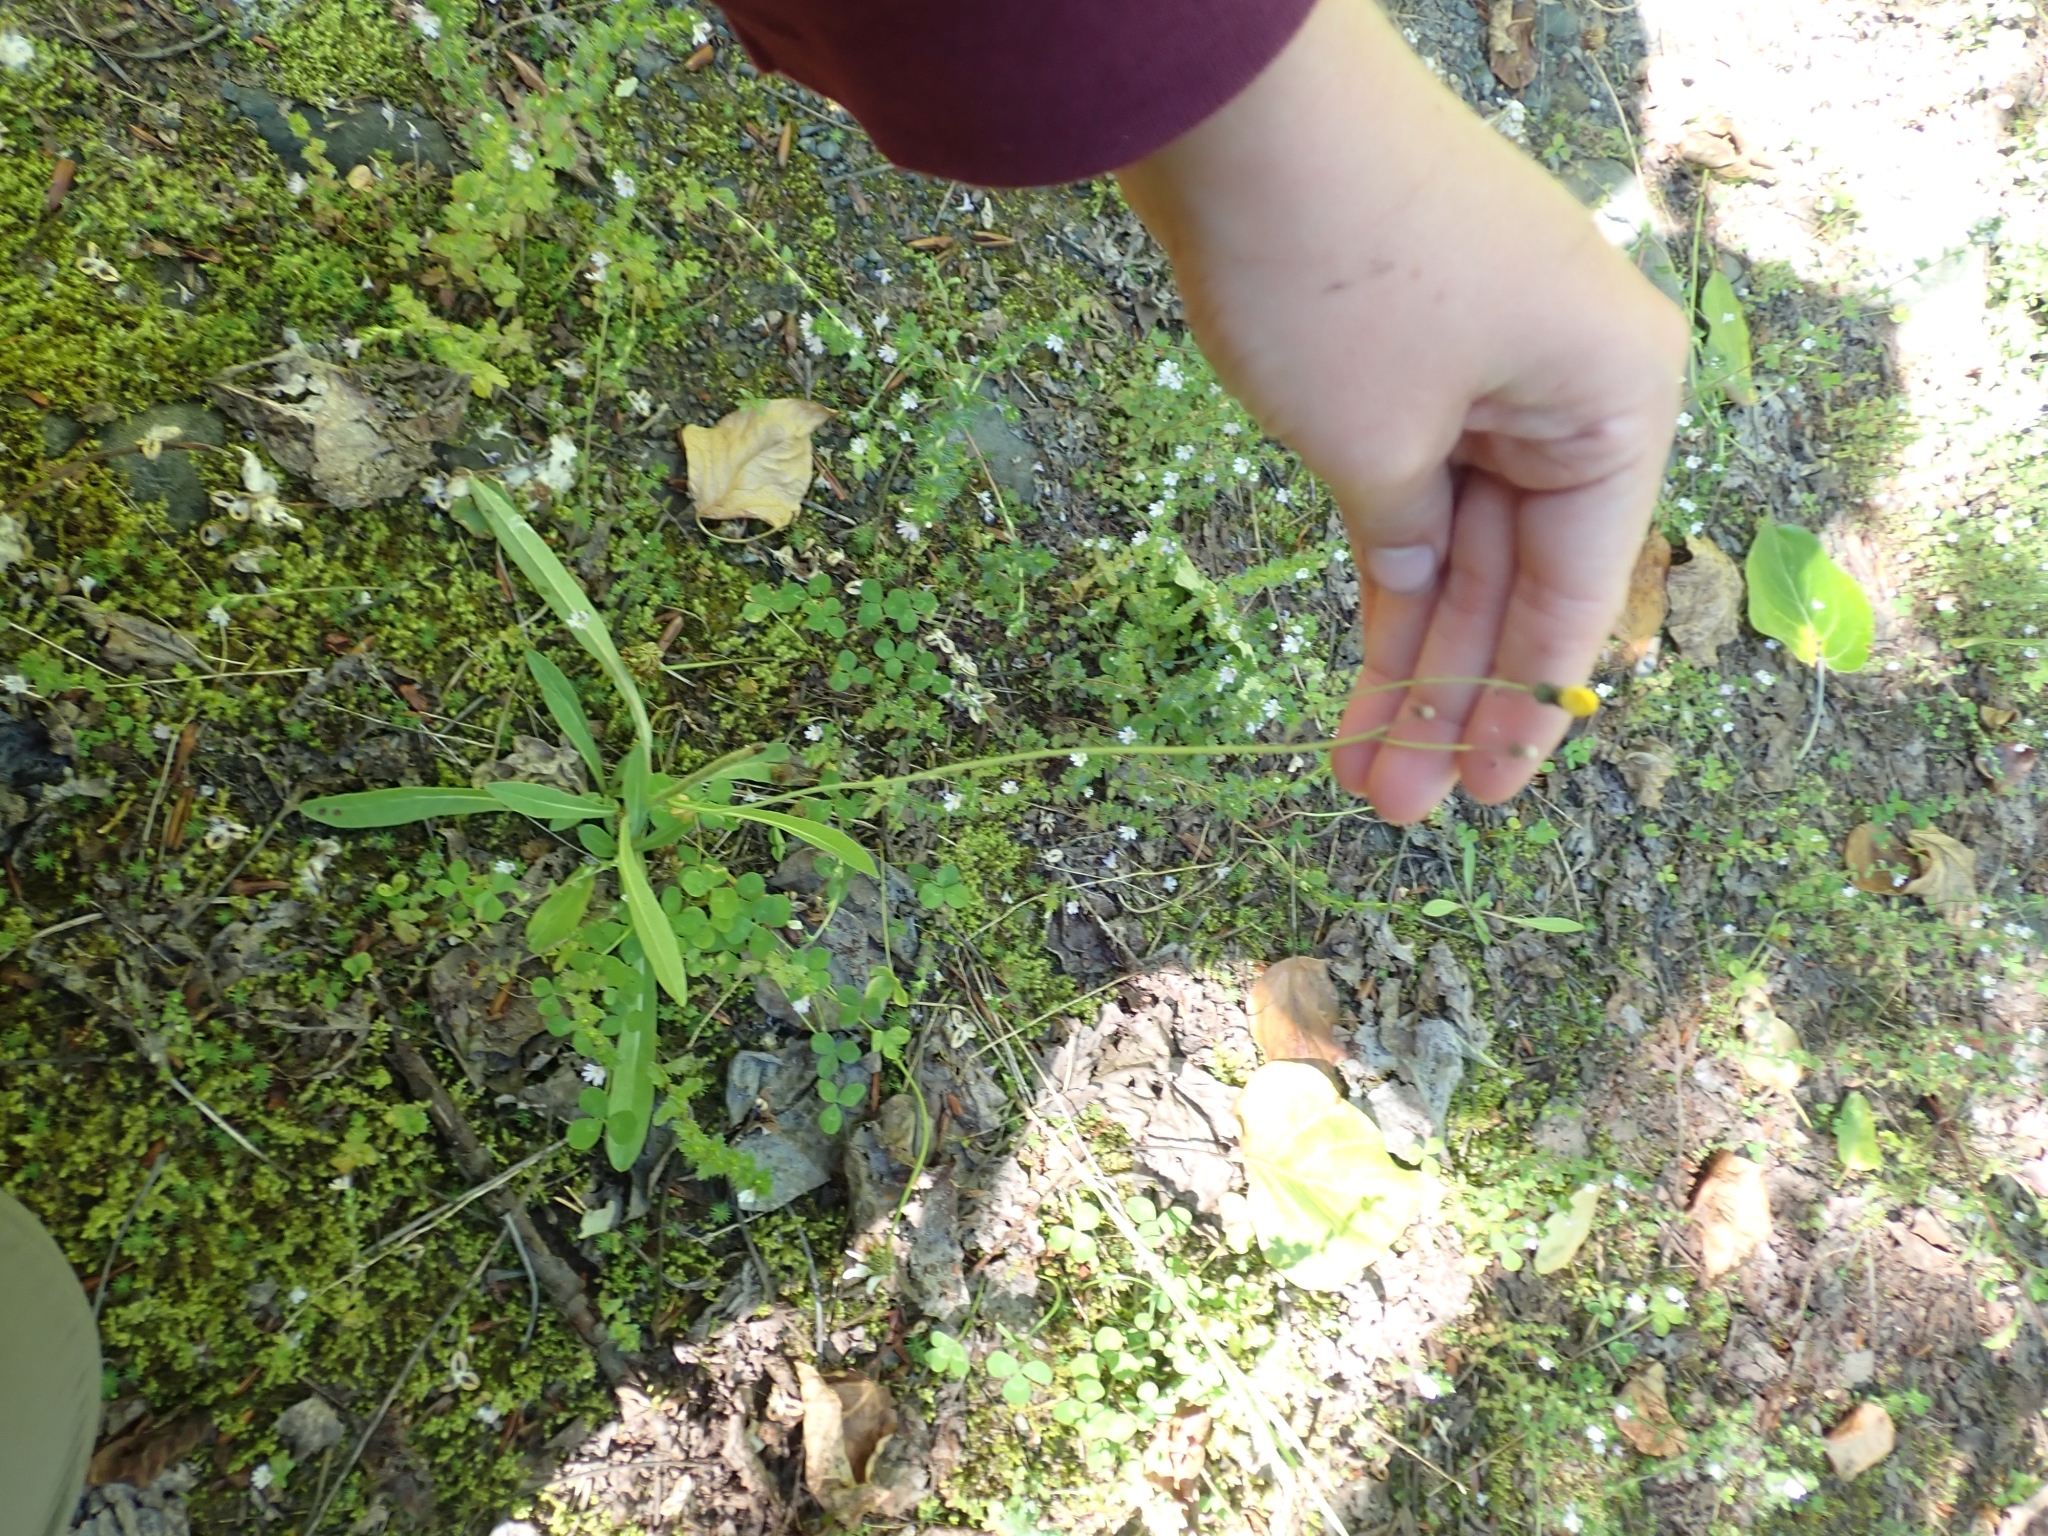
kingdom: Plantae
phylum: Tracheophyta
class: Magnoliopsida
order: Asterales
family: Asteraceae
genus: Pilosella
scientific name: Pilosella caespitosa
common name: Yellow fox-and-cubs
